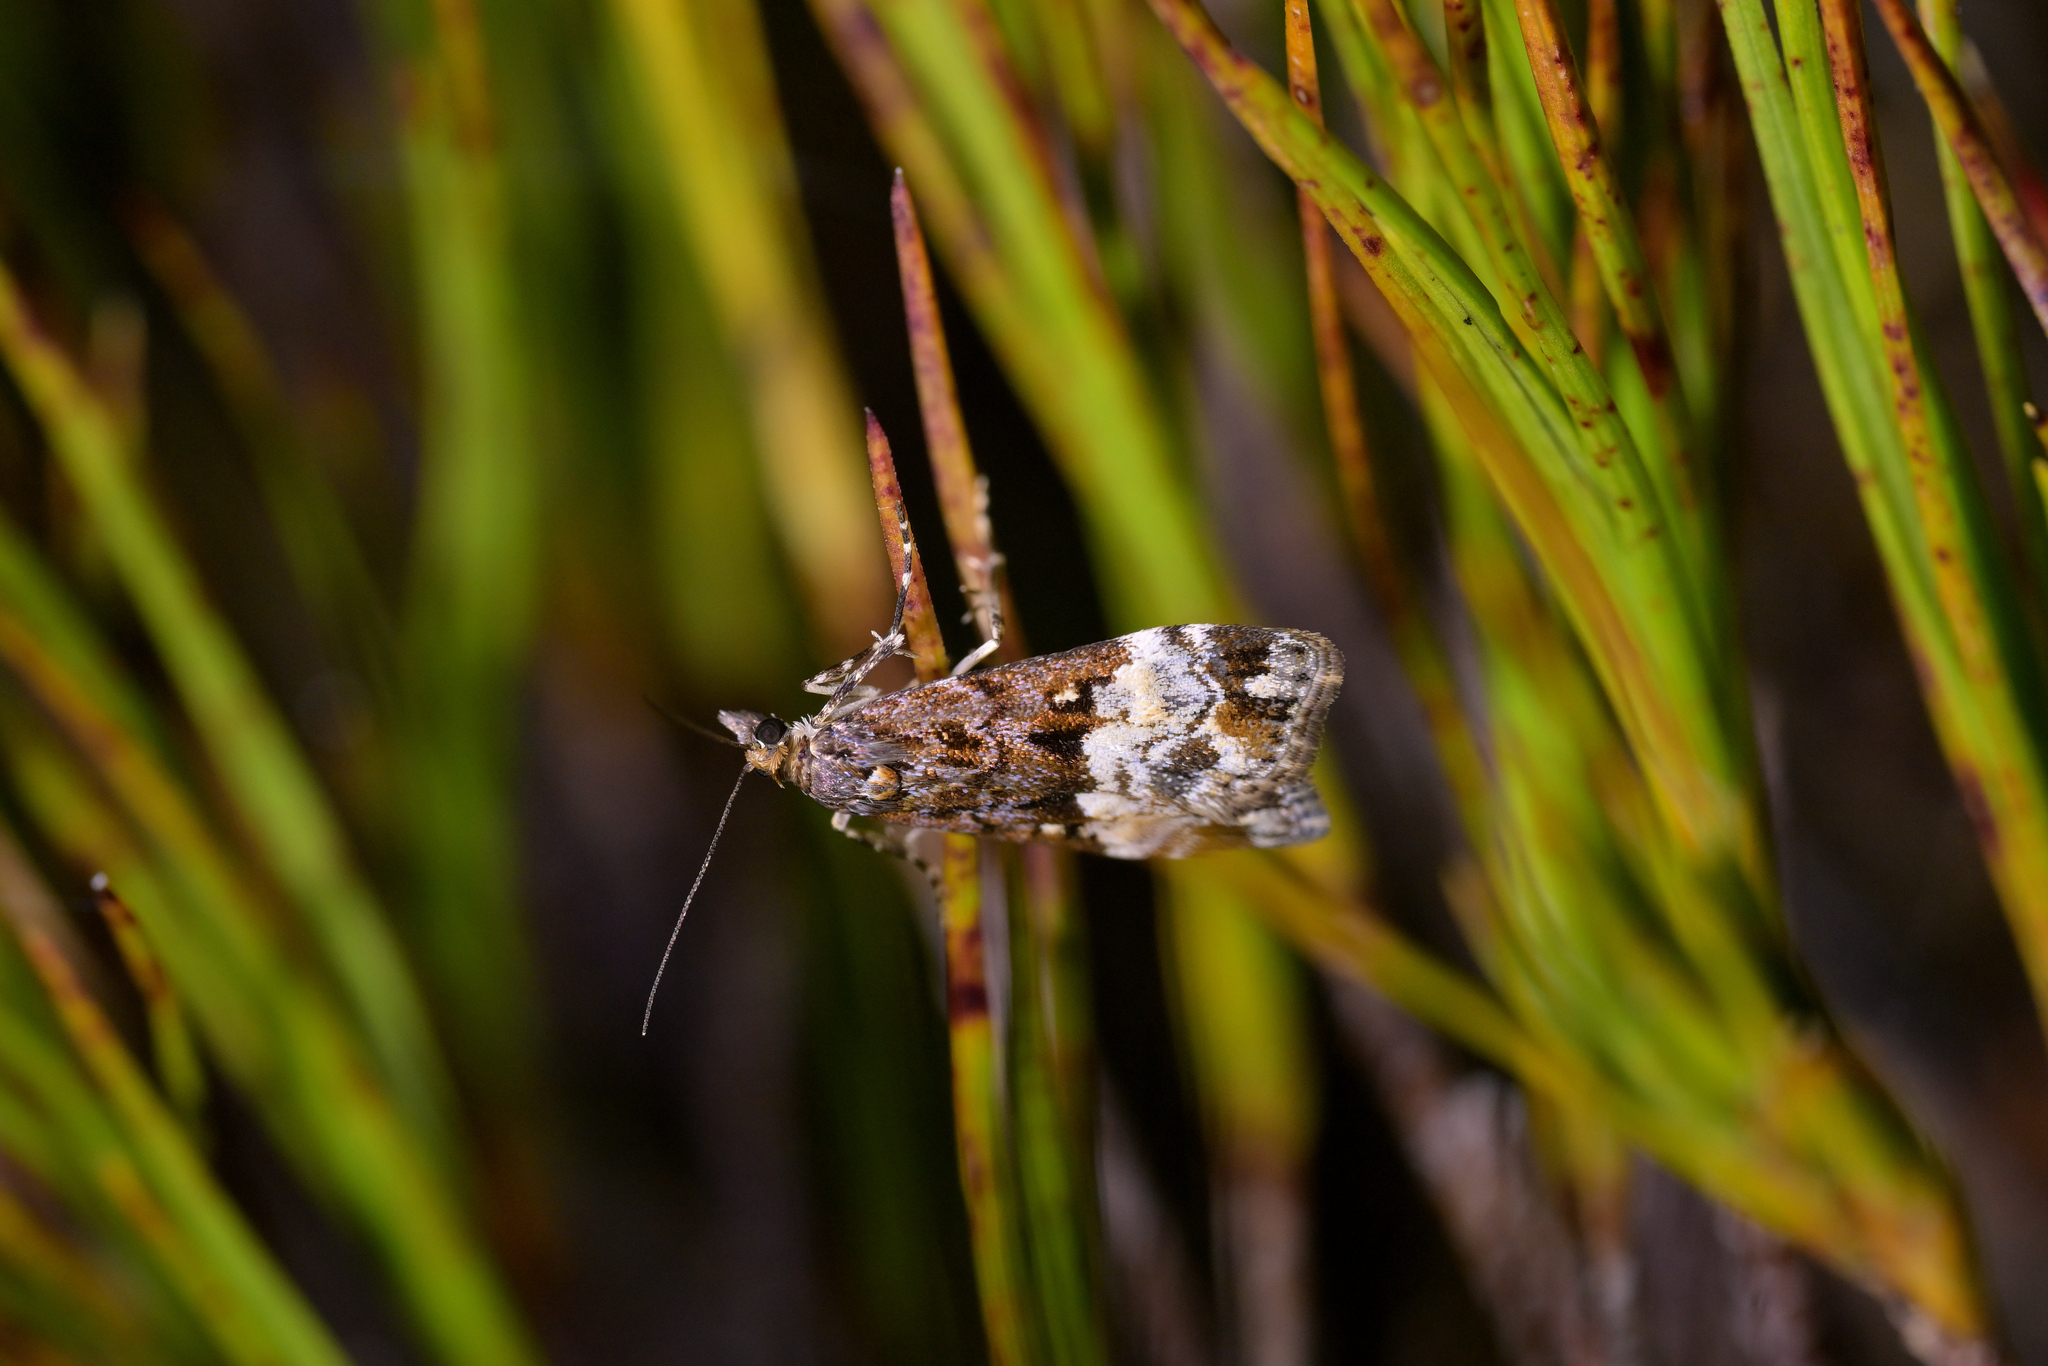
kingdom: Animalia
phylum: Arthropoda
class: Insecta
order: Lepidoptera
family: Crambidae
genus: Scoparia
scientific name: Scoparia minusculalis
